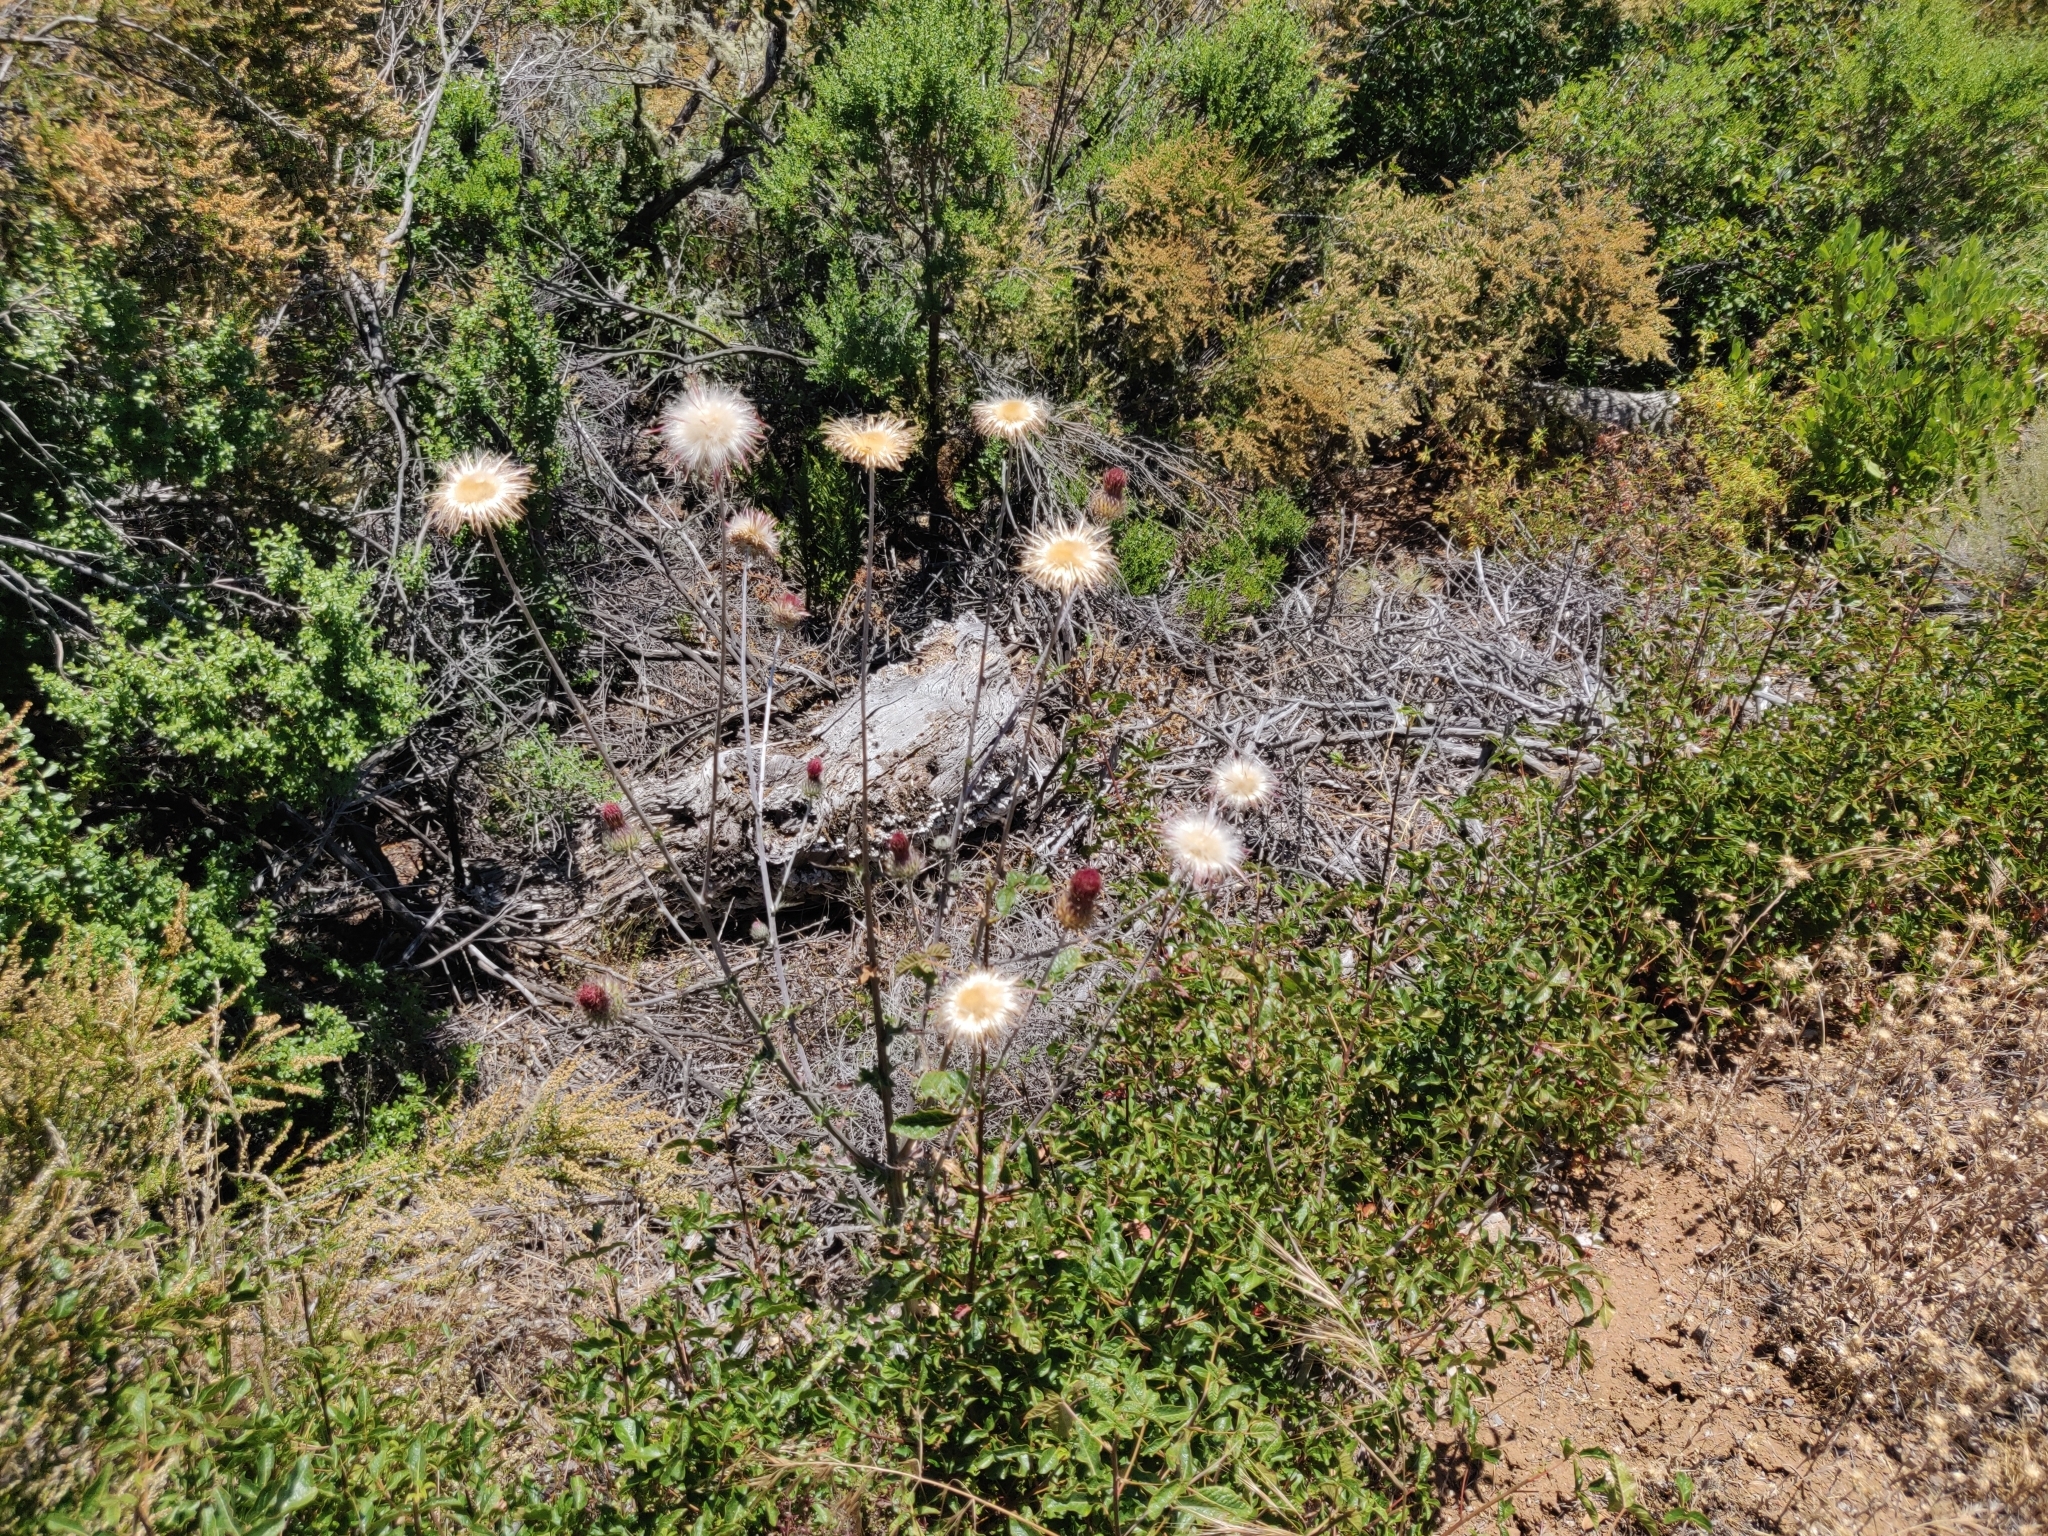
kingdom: Plantae
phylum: Tracheophyta
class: Magnoliopsida
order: Asterales
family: Asteraceae
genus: Cirsium
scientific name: Cirsium occidentale
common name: Western thistle
